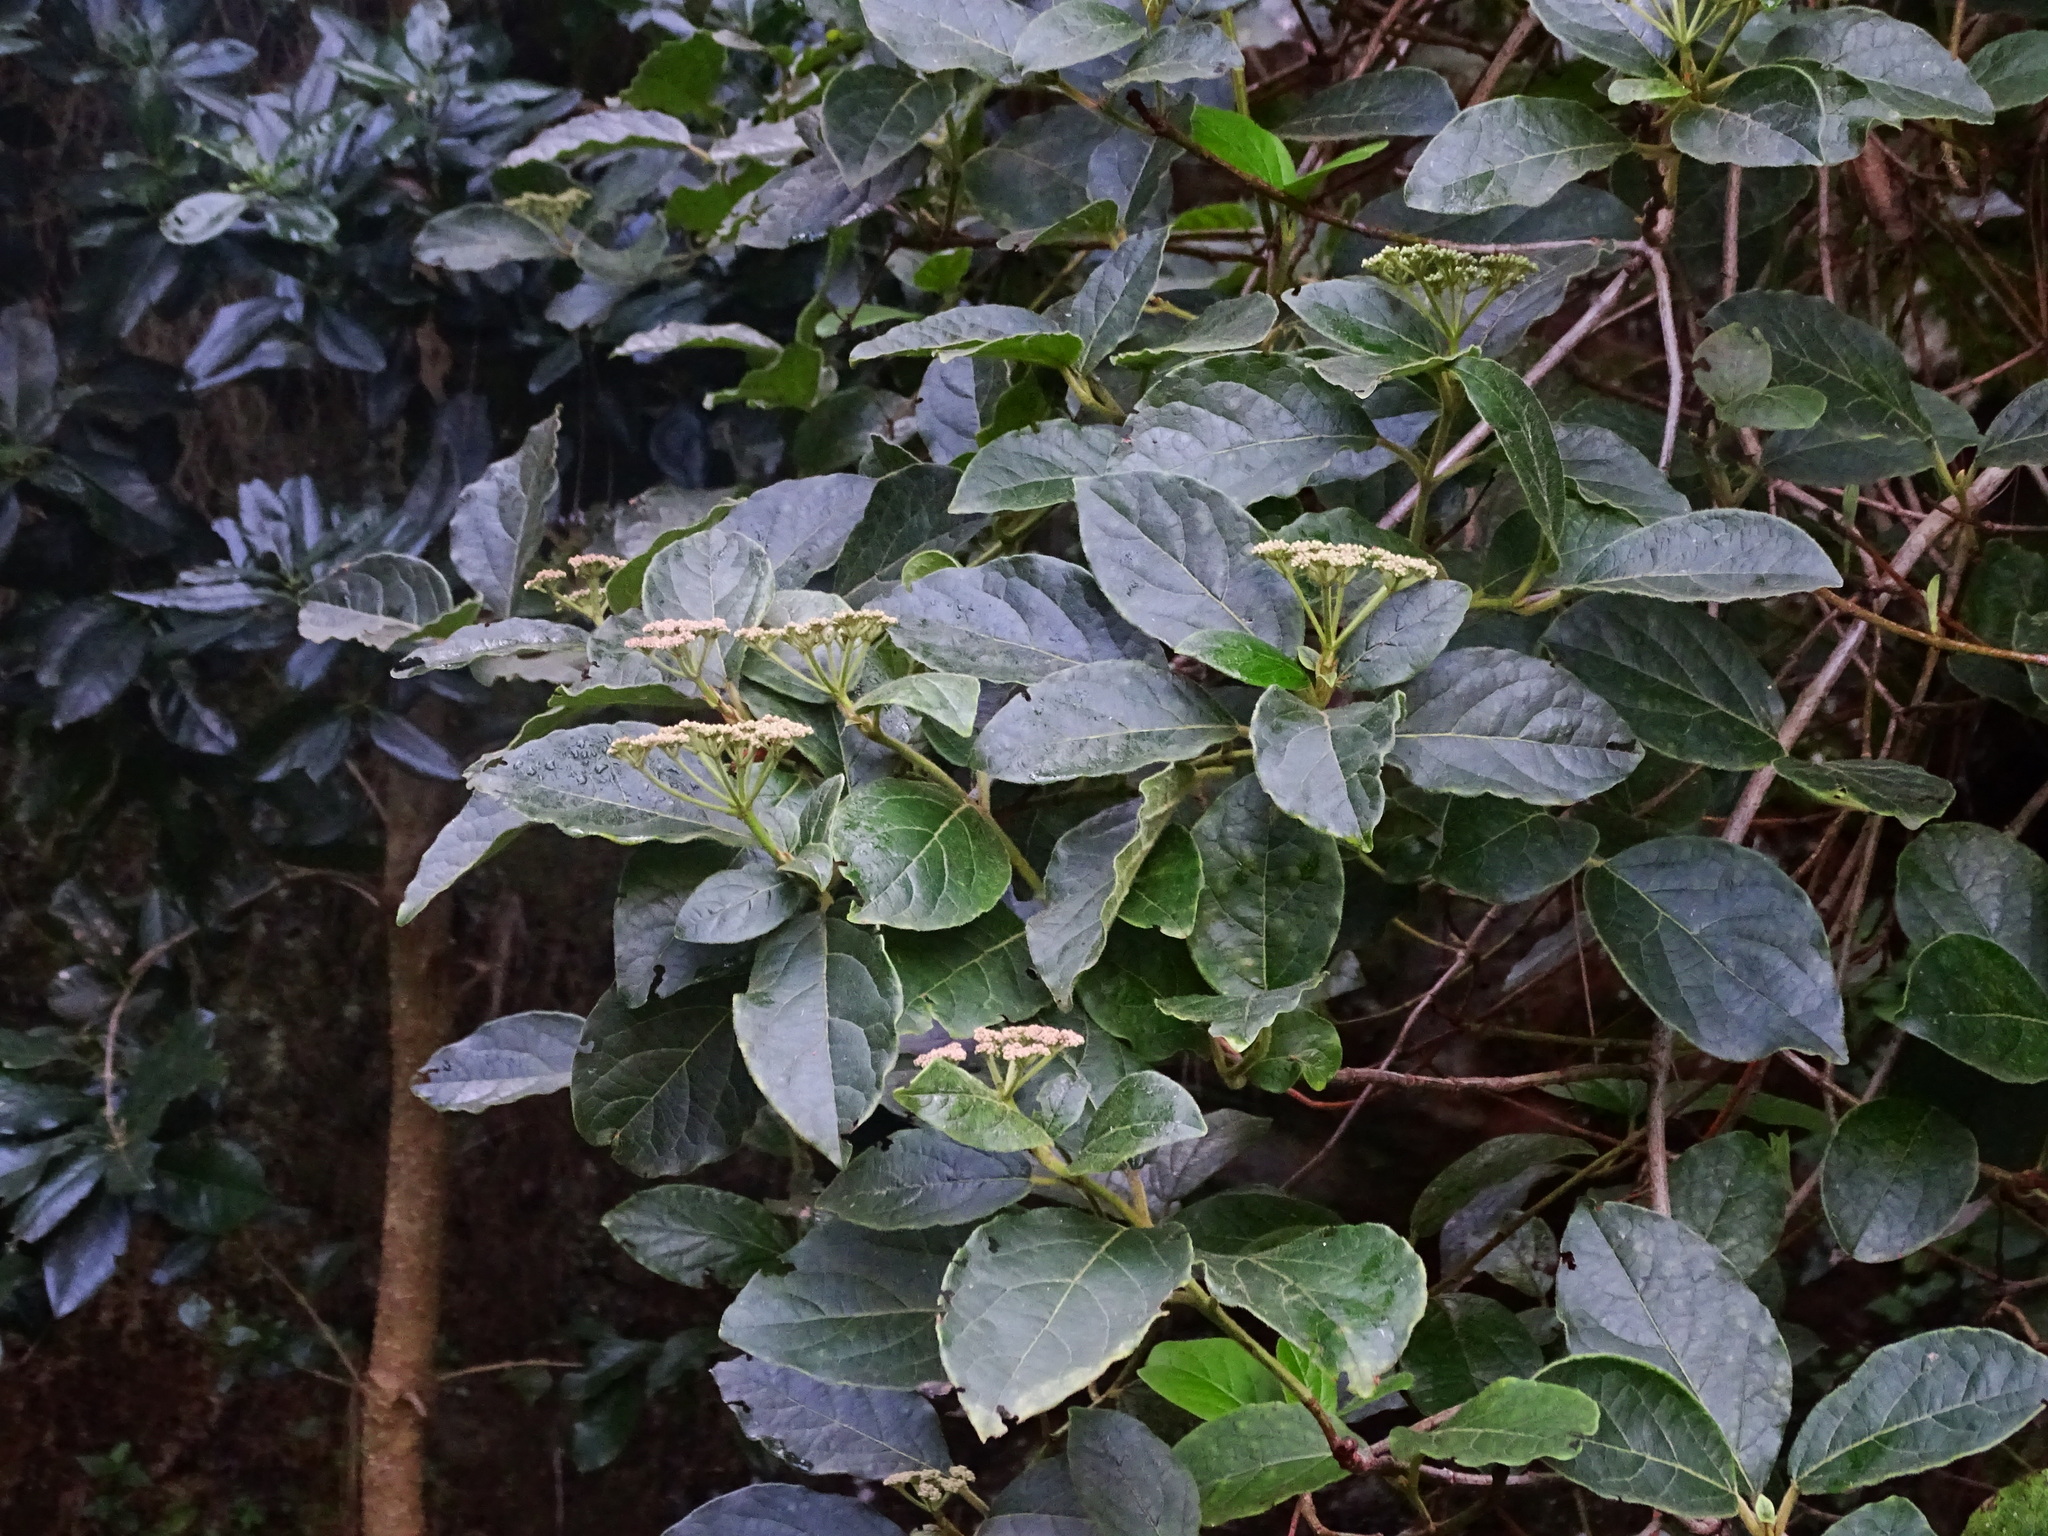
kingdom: Plantae
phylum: Tracheophyta
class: Magnoliopsida
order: Dipsacales
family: Viburnaceae
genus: Viburnum
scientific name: Viburnum rugosum
